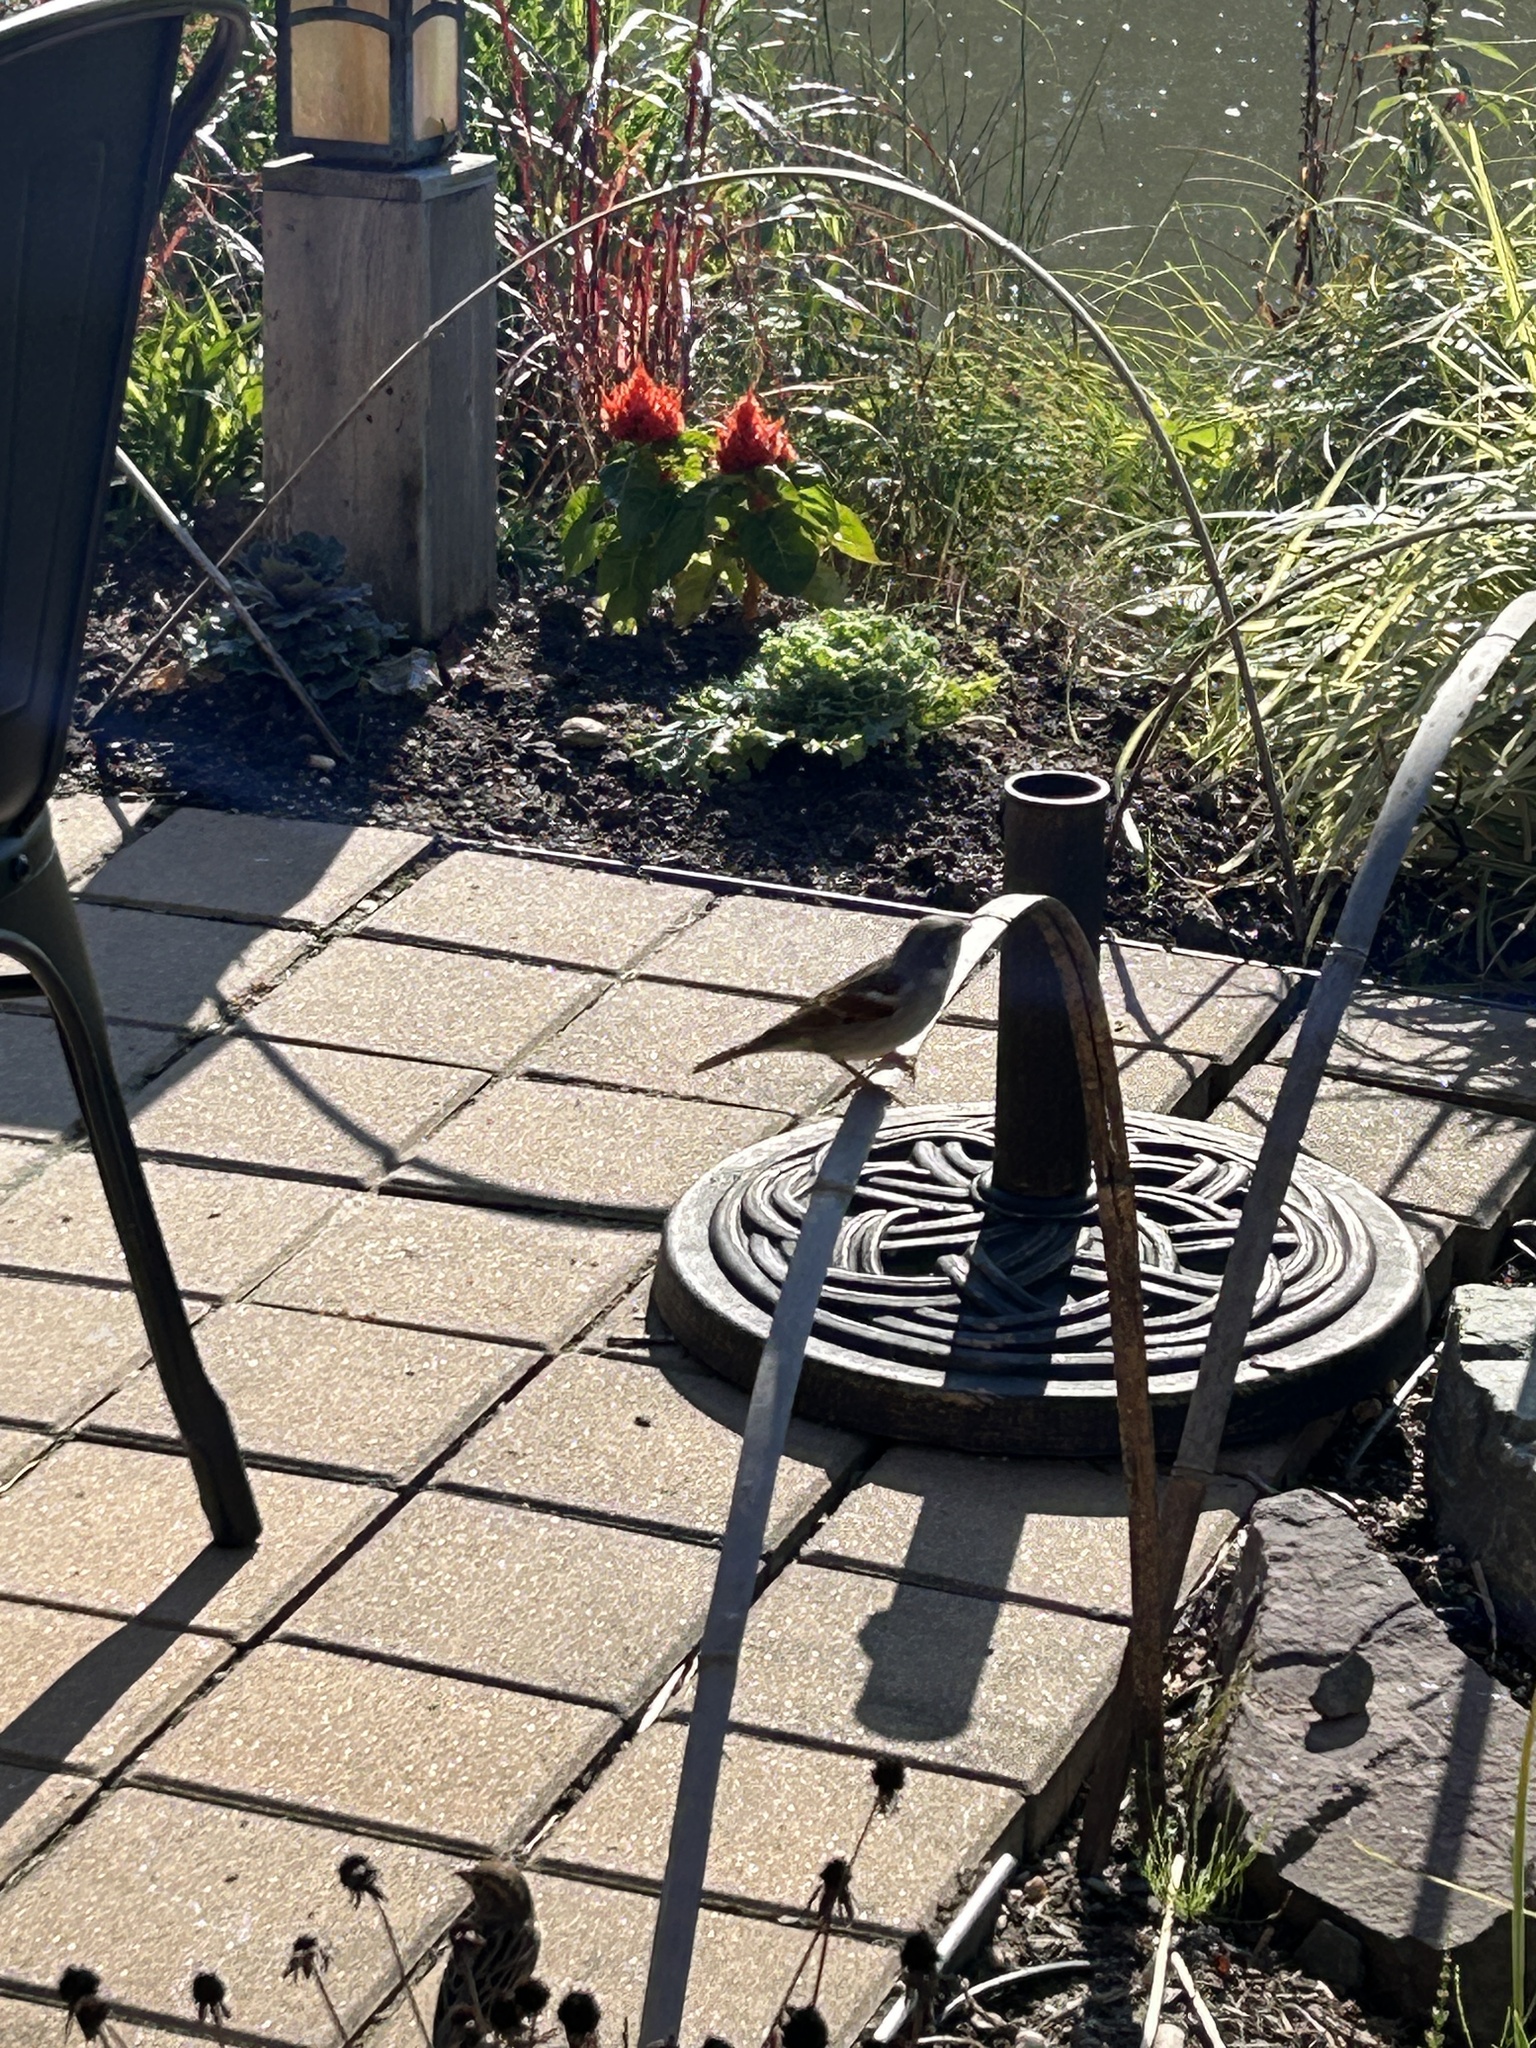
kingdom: Animalia
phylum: Chordata
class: Aves
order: Passeriformes
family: Passeridae
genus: Passer
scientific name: Passer domesticus
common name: House sparrow
